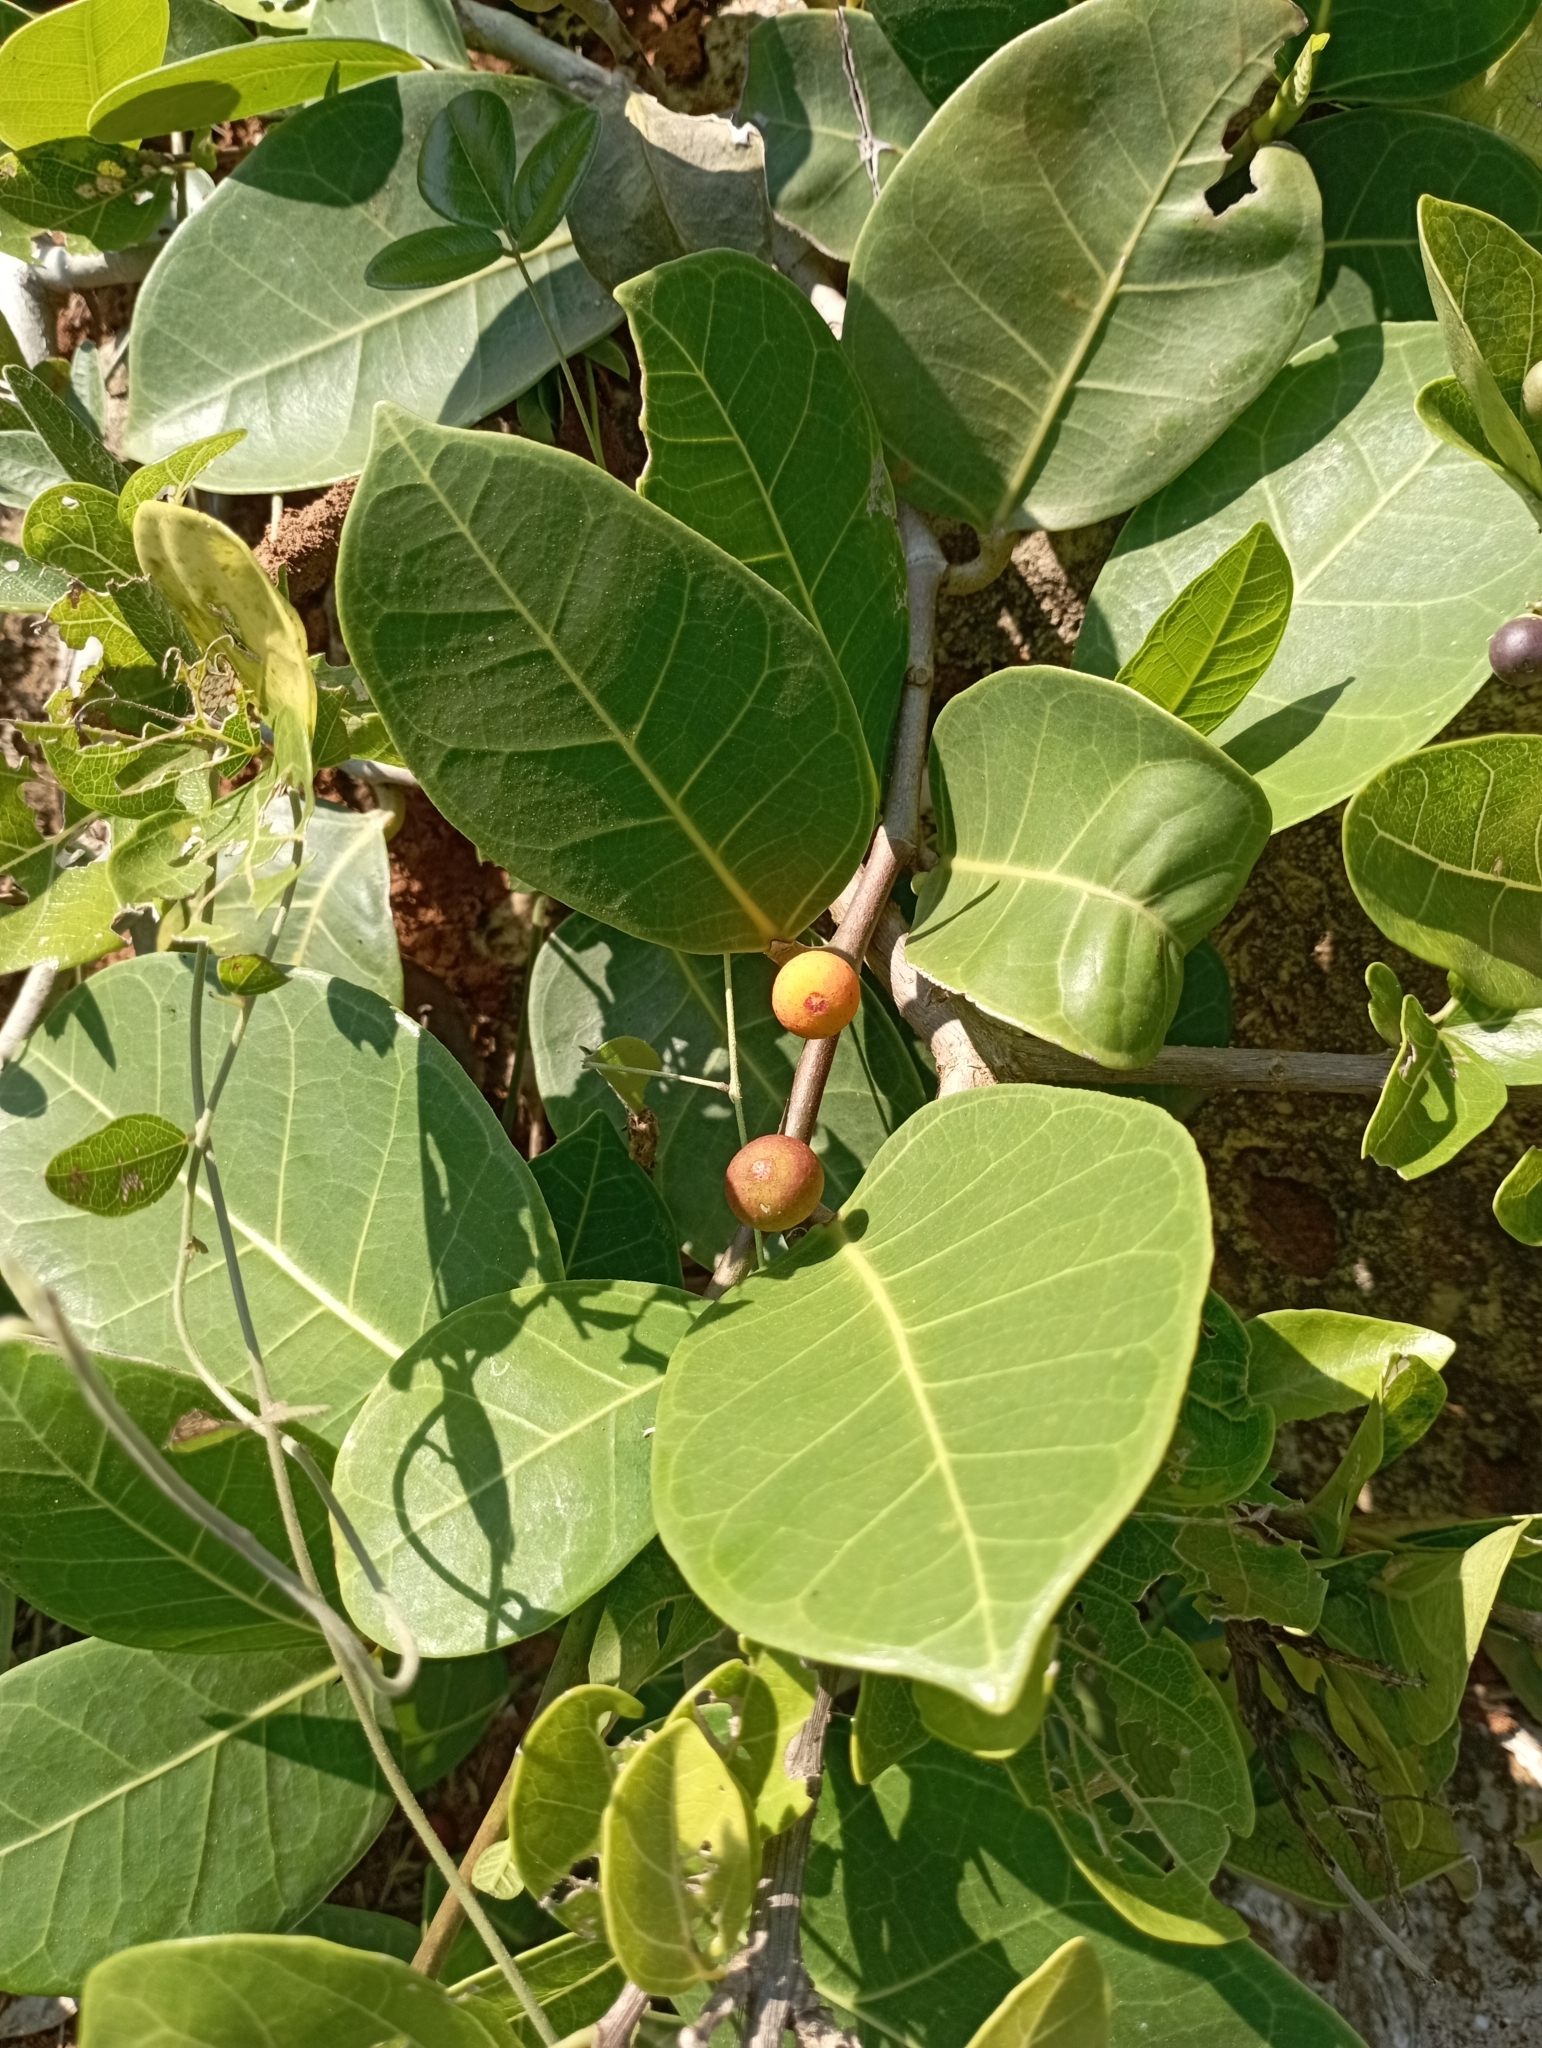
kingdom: Plantae
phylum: Tracheophyta
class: Magnoliopsida
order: Rosales
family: Moraceae
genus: Ficus
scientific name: Ficus tinctoria
